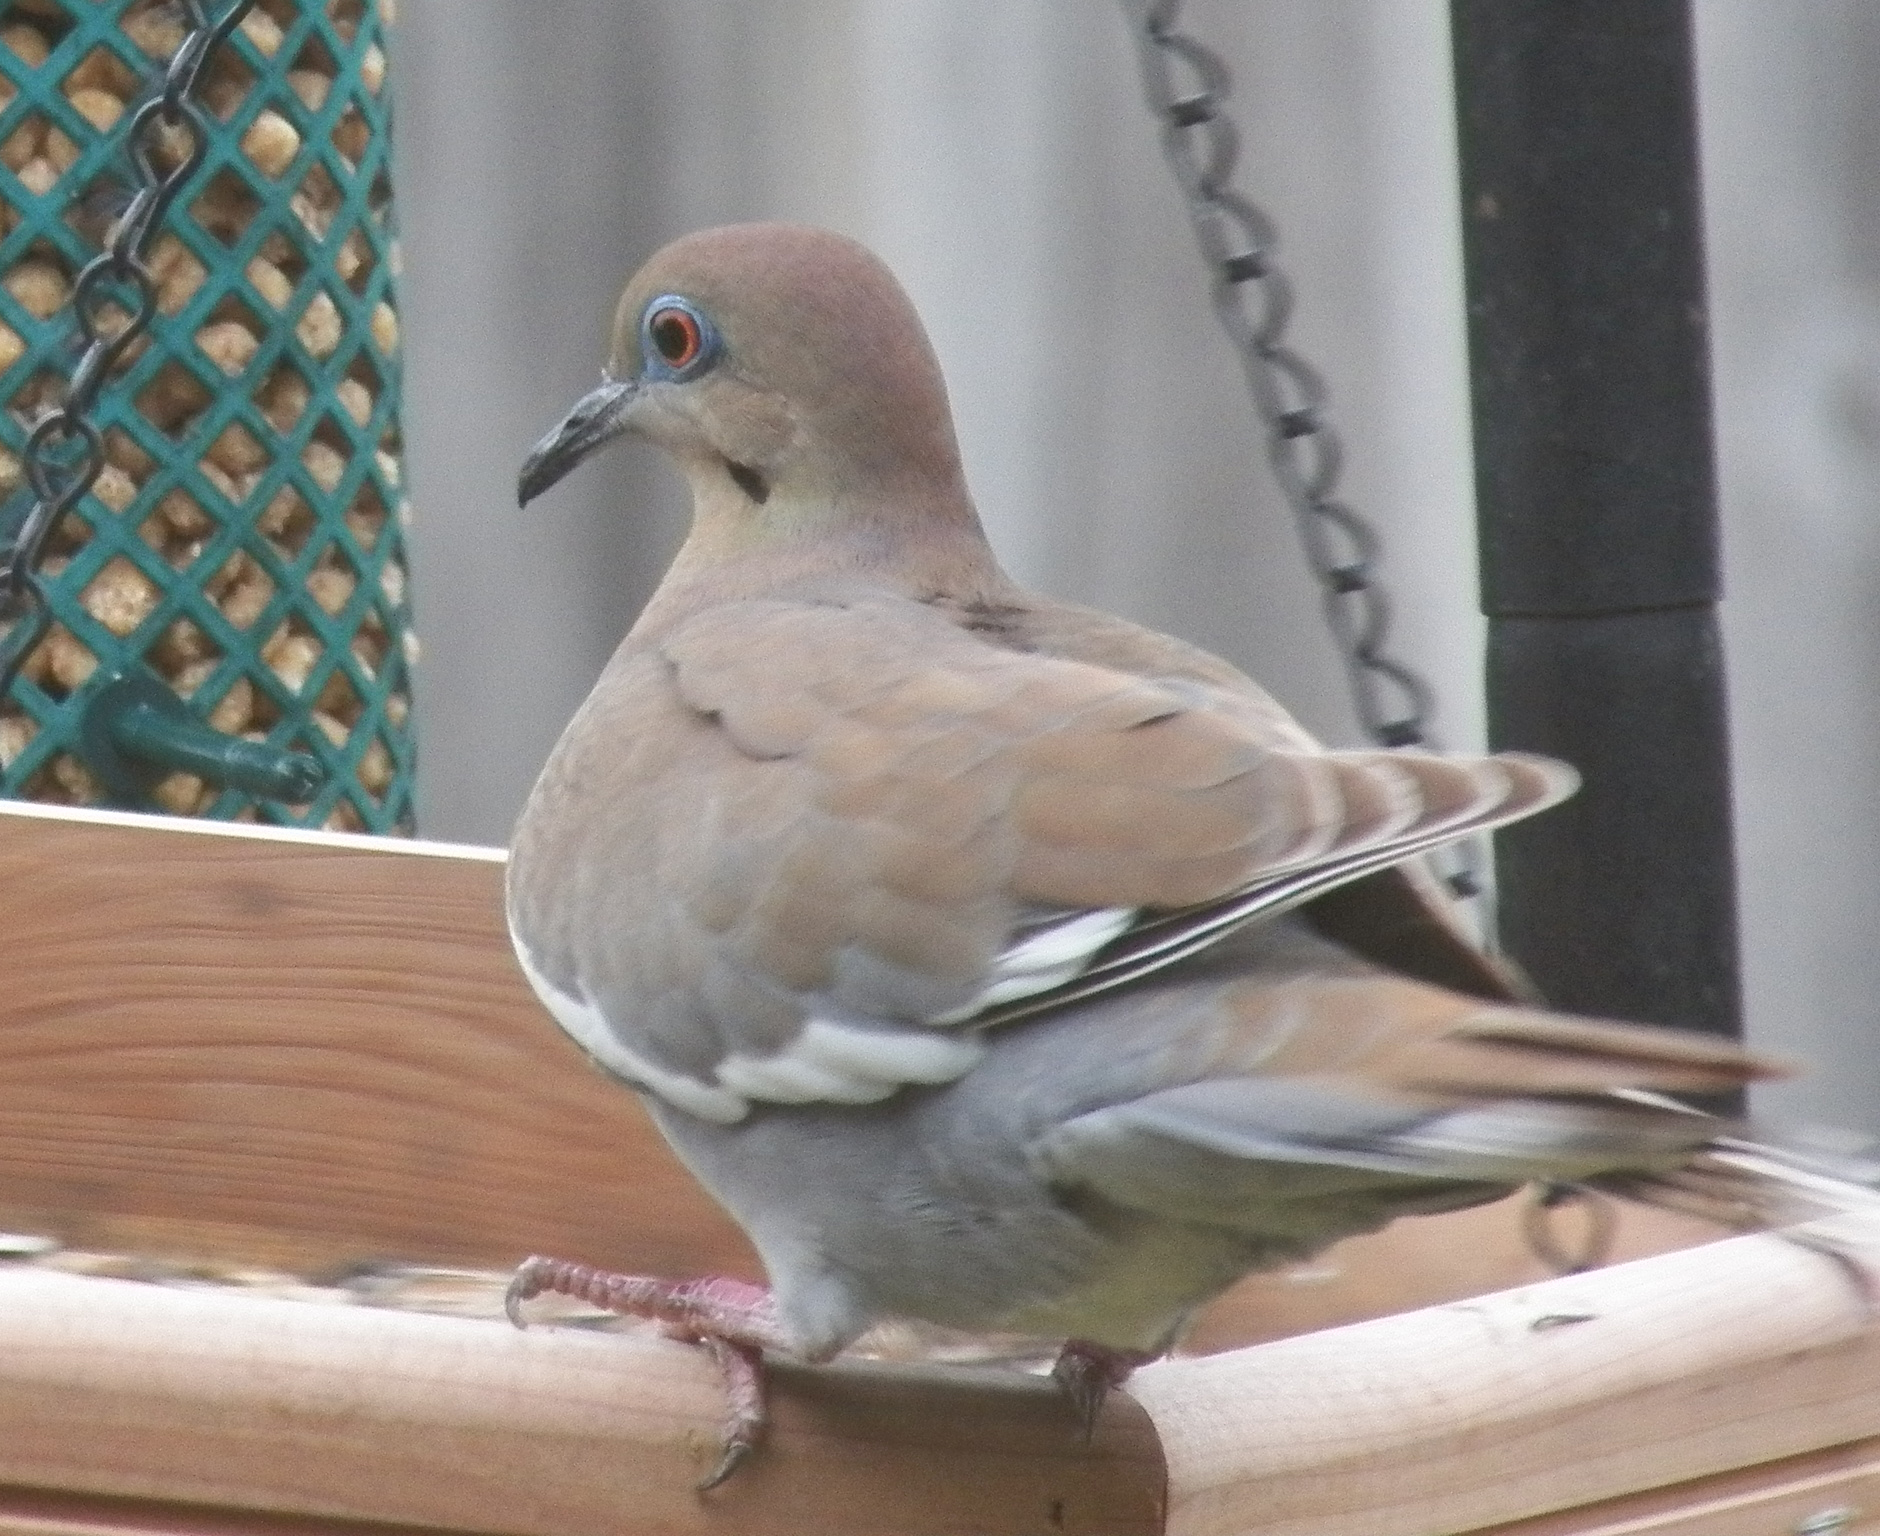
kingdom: Animalia
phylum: Chordata
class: Aves
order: Columbiformes
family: Columbidae
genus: Zenaida
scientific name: Zenaida asiatica
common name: White-winged dove
